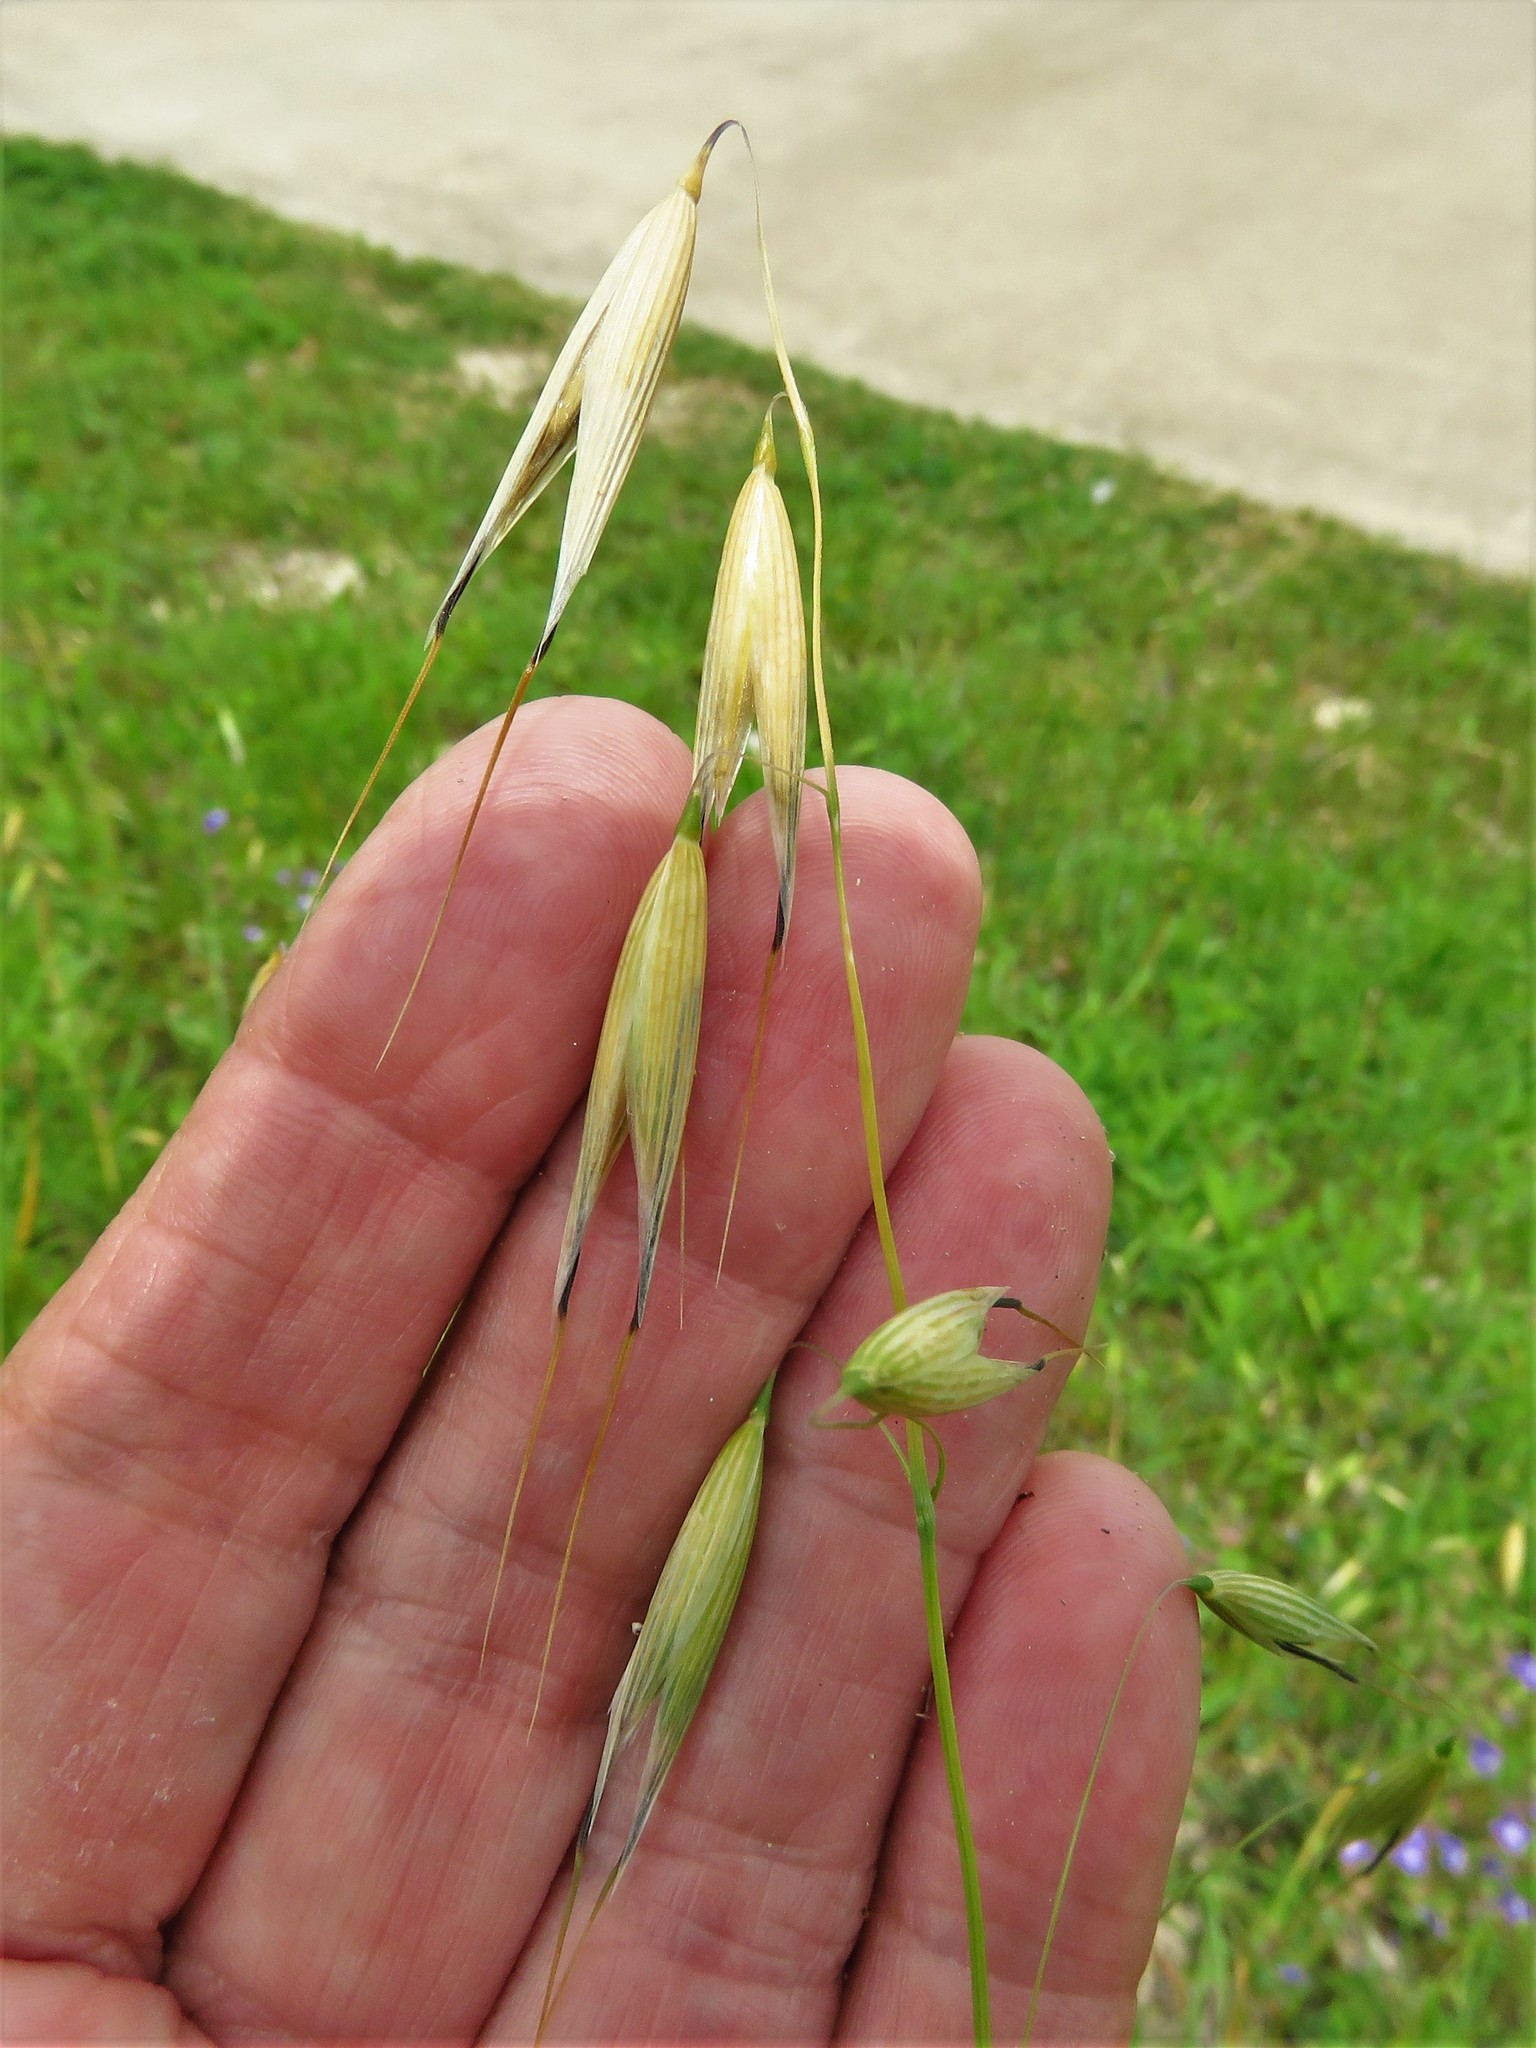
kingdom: Plantae
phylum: Tracheophyta
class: Liliopsida
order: Poales
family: Poaceae
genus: Avena
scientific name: Avena fatua
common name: Wild oat
